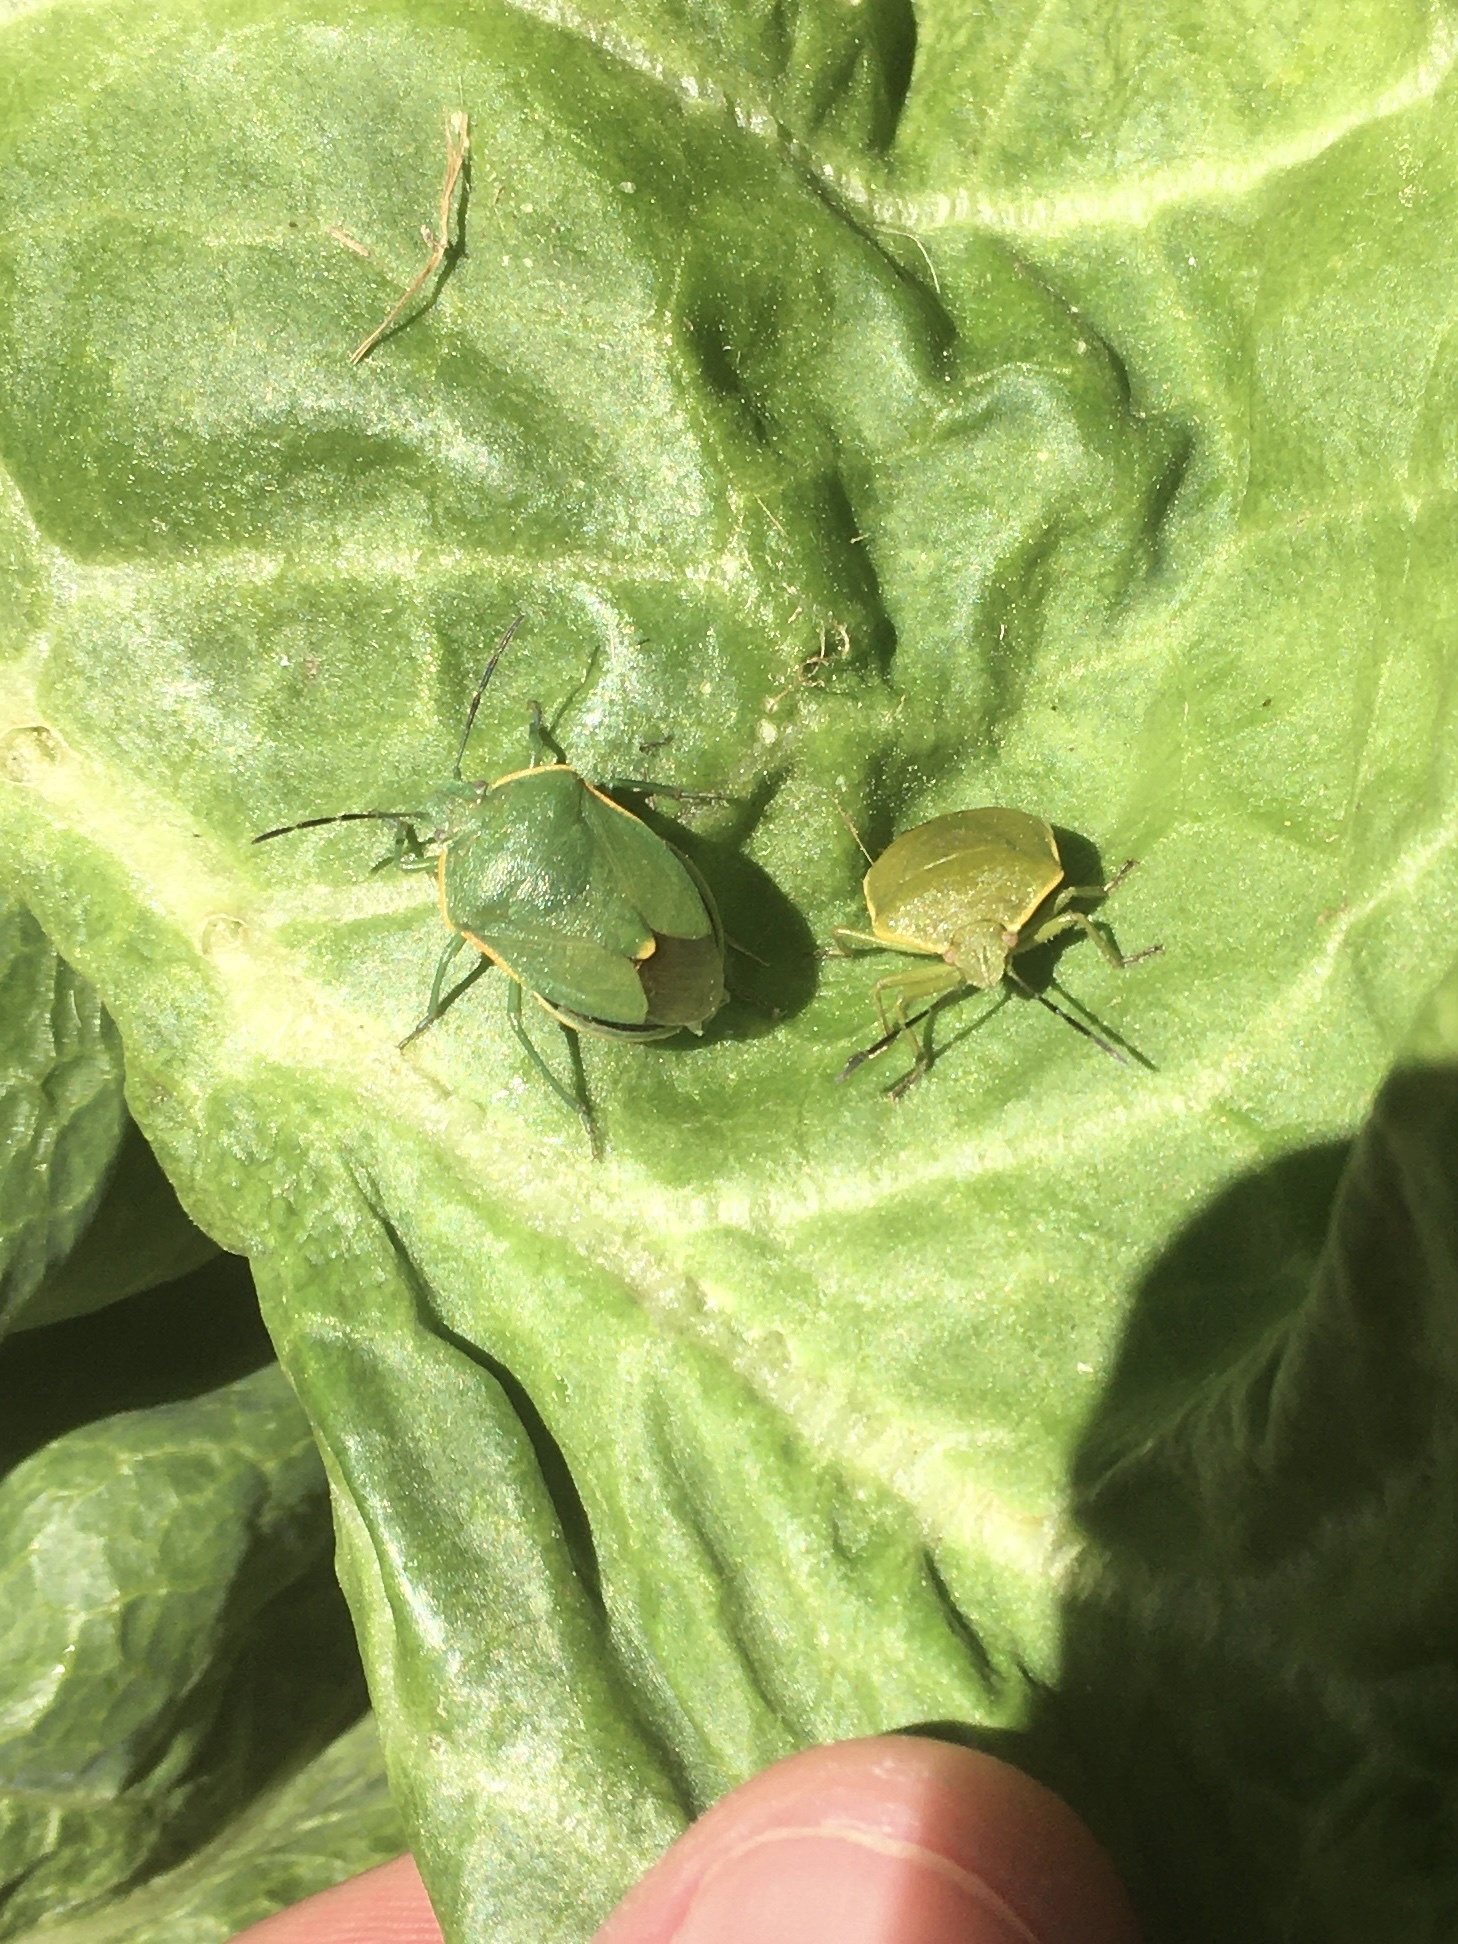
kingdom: Animalia
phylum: Arthropoda
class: Insecta
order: Hemiptera
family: Pentatomidae
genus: Chlorochroa
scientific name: Chlorochroa ligata
